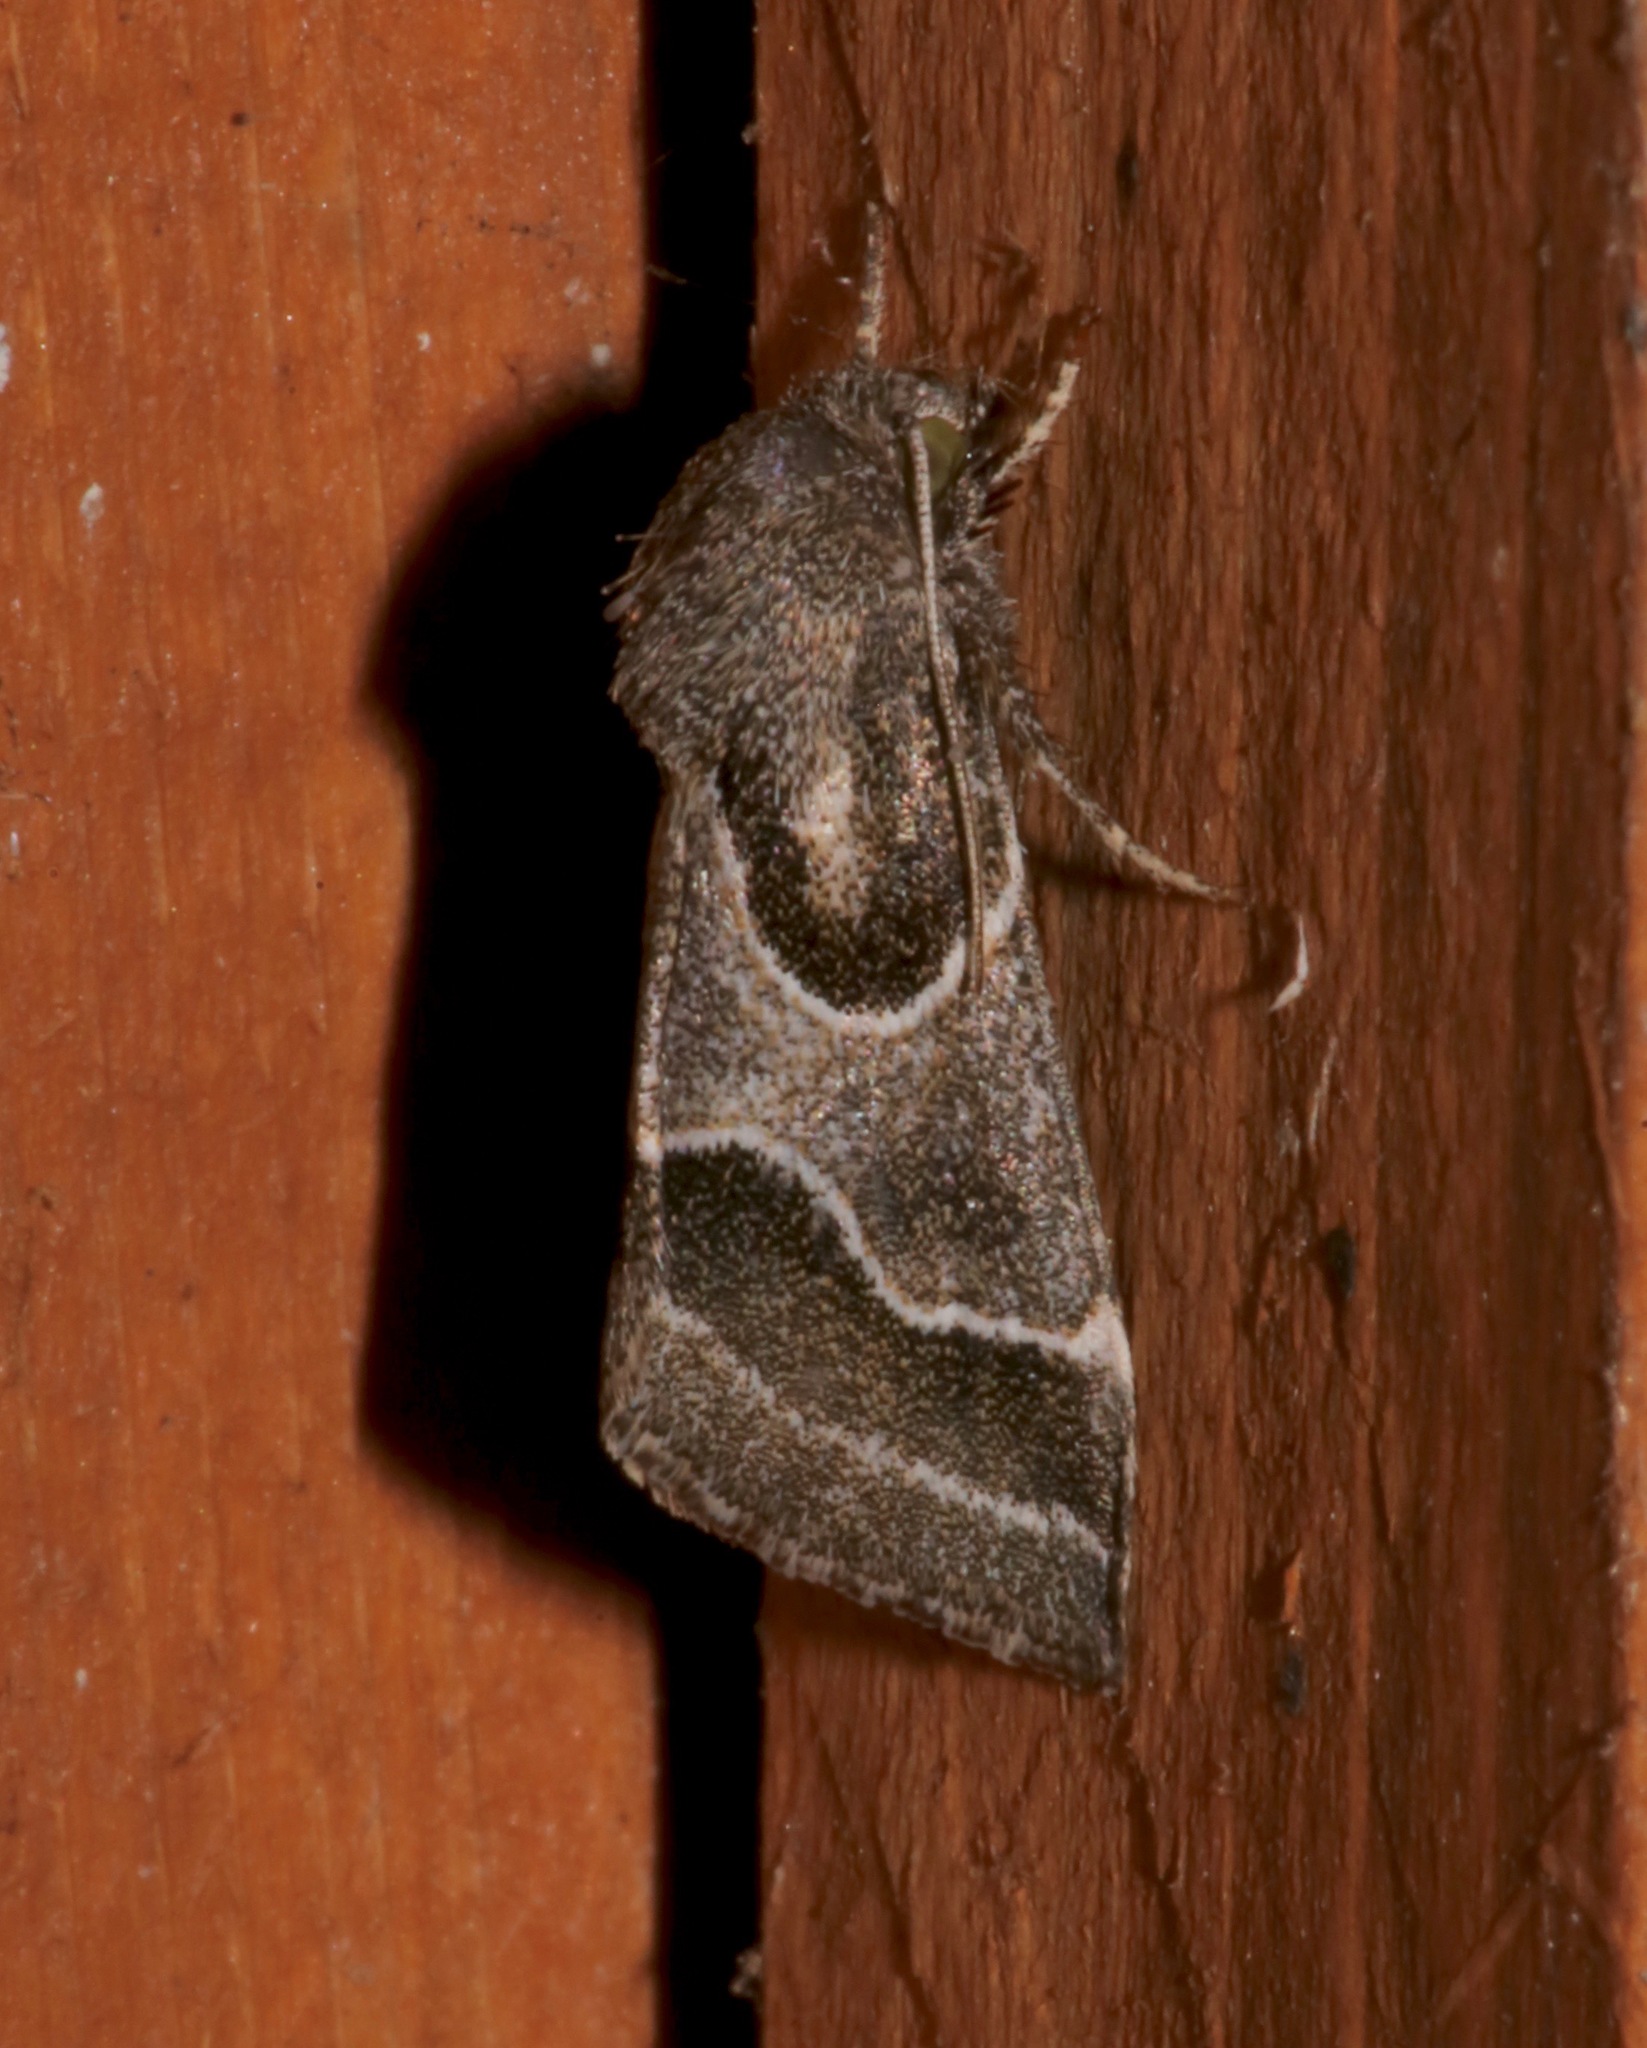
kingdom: Animalia
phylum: Arthropoda
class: Insecta
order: Lepidoptera
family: Noctuidae
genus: Schinia
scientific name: Schinia rivulosa
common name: Scarce meal-moth
